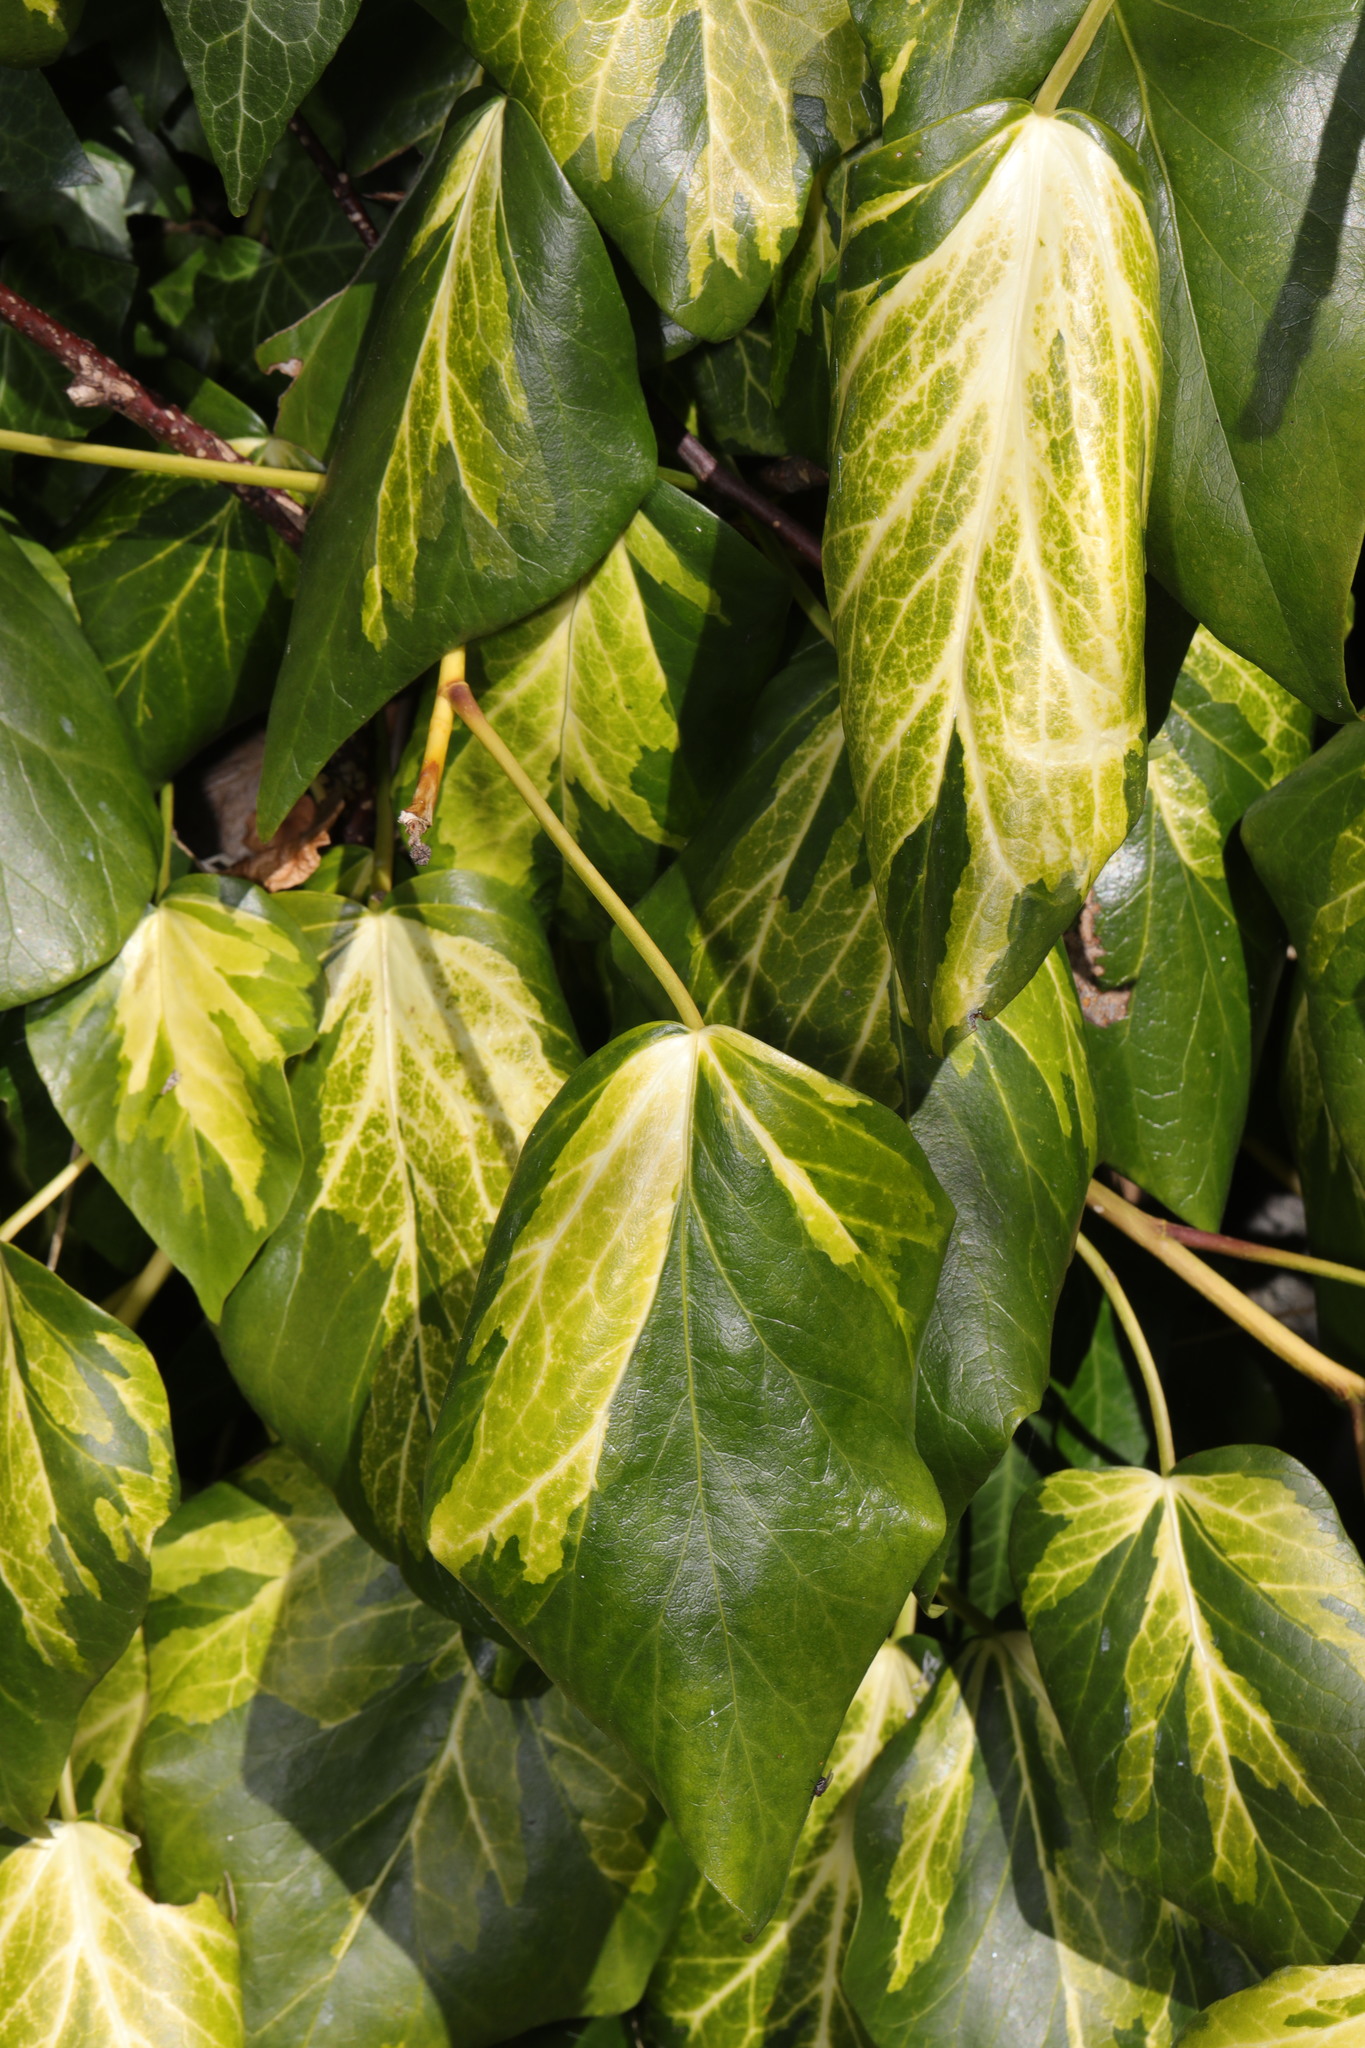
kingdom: Plantae
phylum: Tracheophyta
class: Magnoliopsida
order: Apiales
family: Araliaceae
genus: Hedera
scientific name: Hedera colchica
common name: Persian ivy
